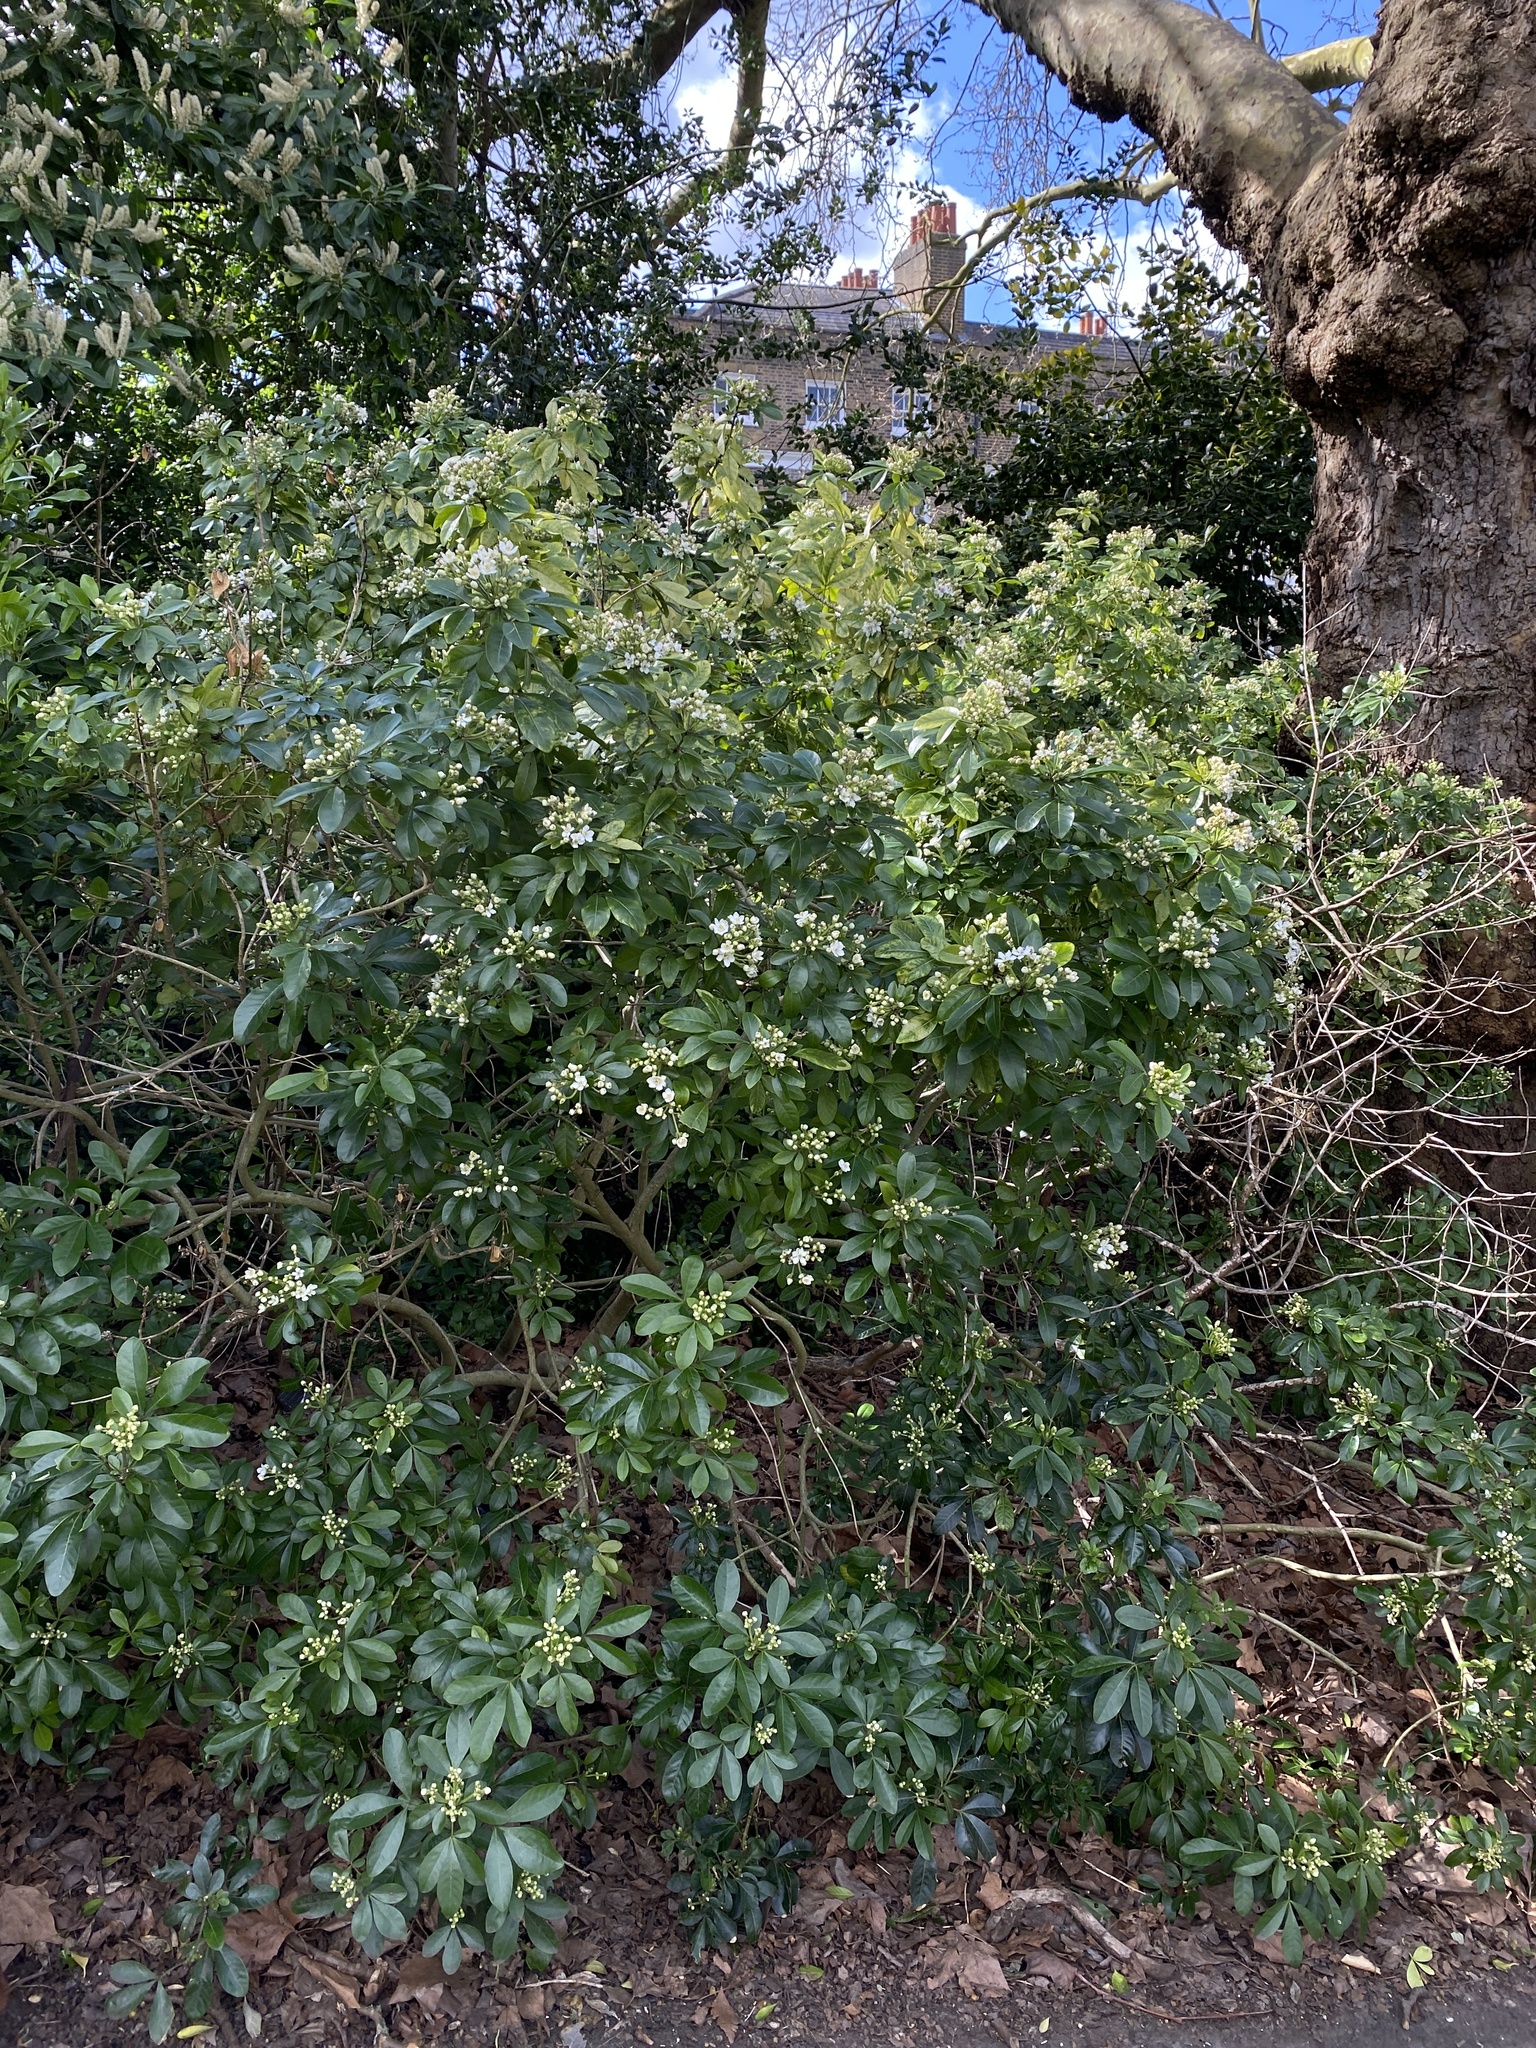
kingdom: Plantae
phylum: Tracheophyta
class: Magnoliopsida
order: Sapindales
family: Rutaceae
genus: Choisya
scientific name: Choisya ternata
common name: Mexican orange
